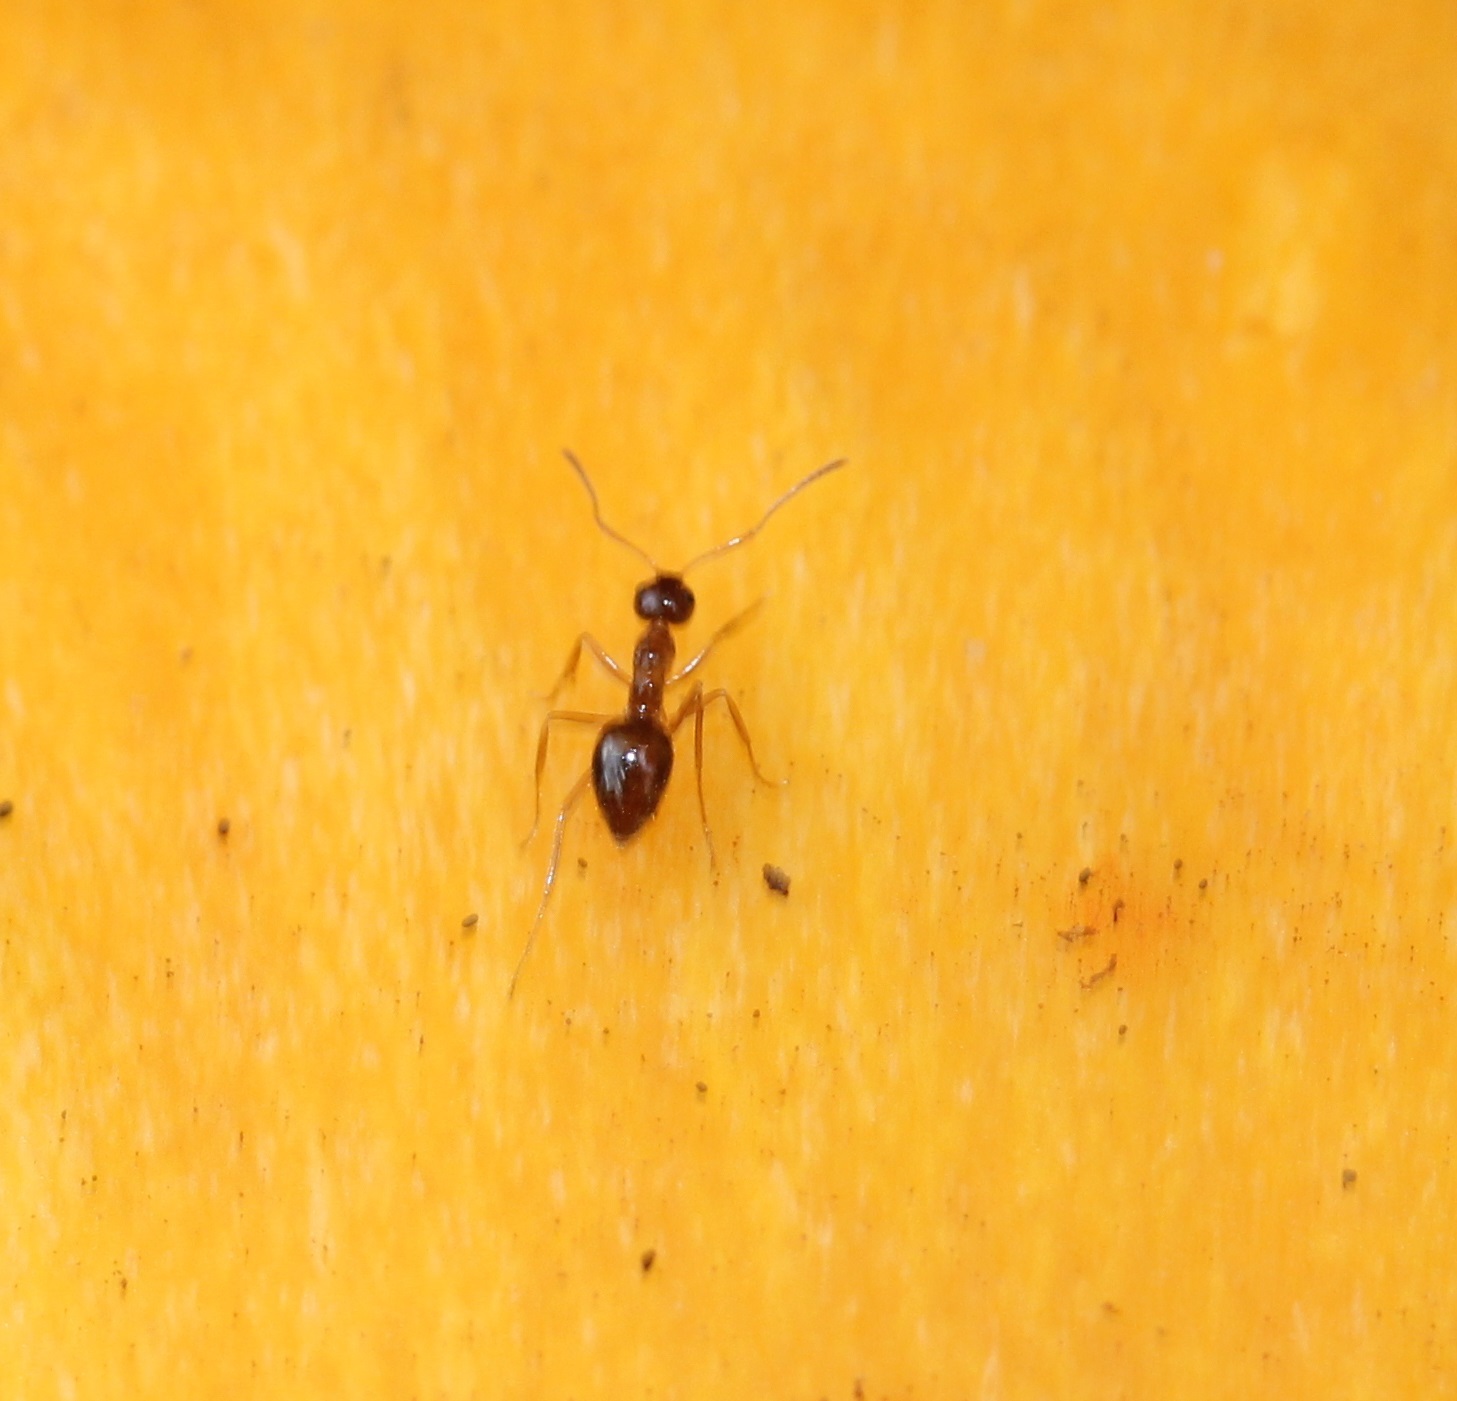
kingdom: Animalia
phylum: Arthropoda
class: Insecta
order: Hymenoptera
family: Formicidae
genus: Prenolepis
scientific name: Prenolepis imparis
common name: Small honey ant
